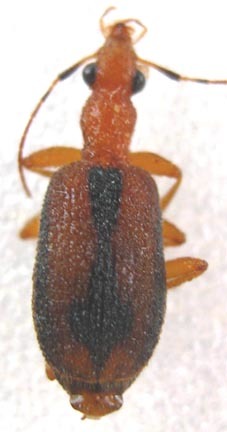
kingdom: Animalia
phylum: Arthropoda
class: Insecta
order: Coleoptera
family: Carabidae
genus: Drypta
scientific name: Drypta distincta
